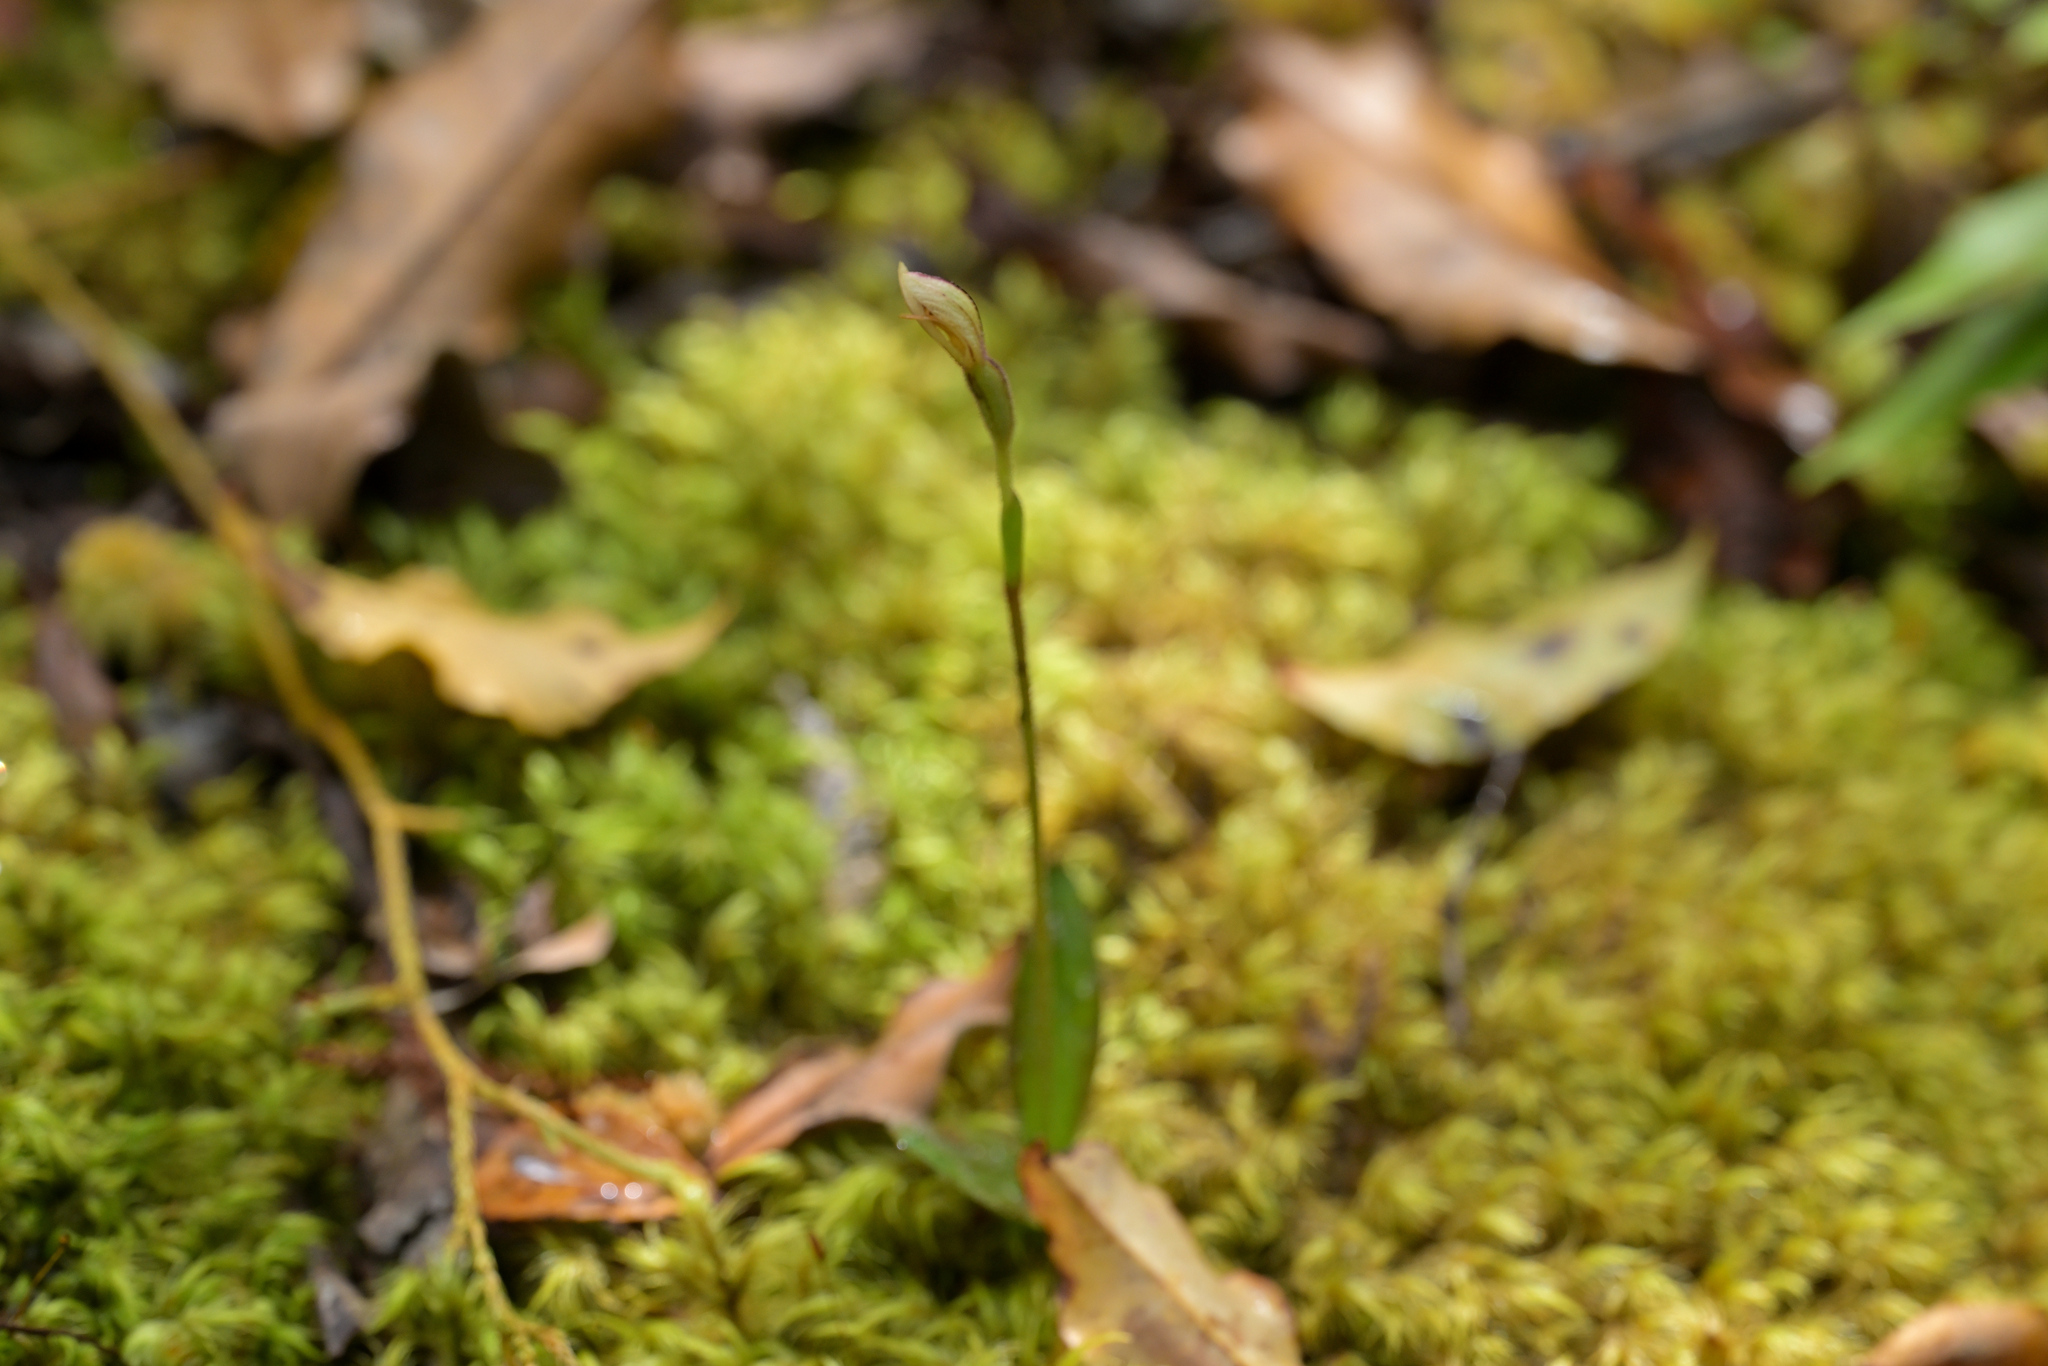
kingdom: Plantae
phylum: Tracheophyta
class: Liliopsida
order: Asparagales
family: Orchidaceae
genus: Aporostylis
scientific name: Aporostylis bifolia
